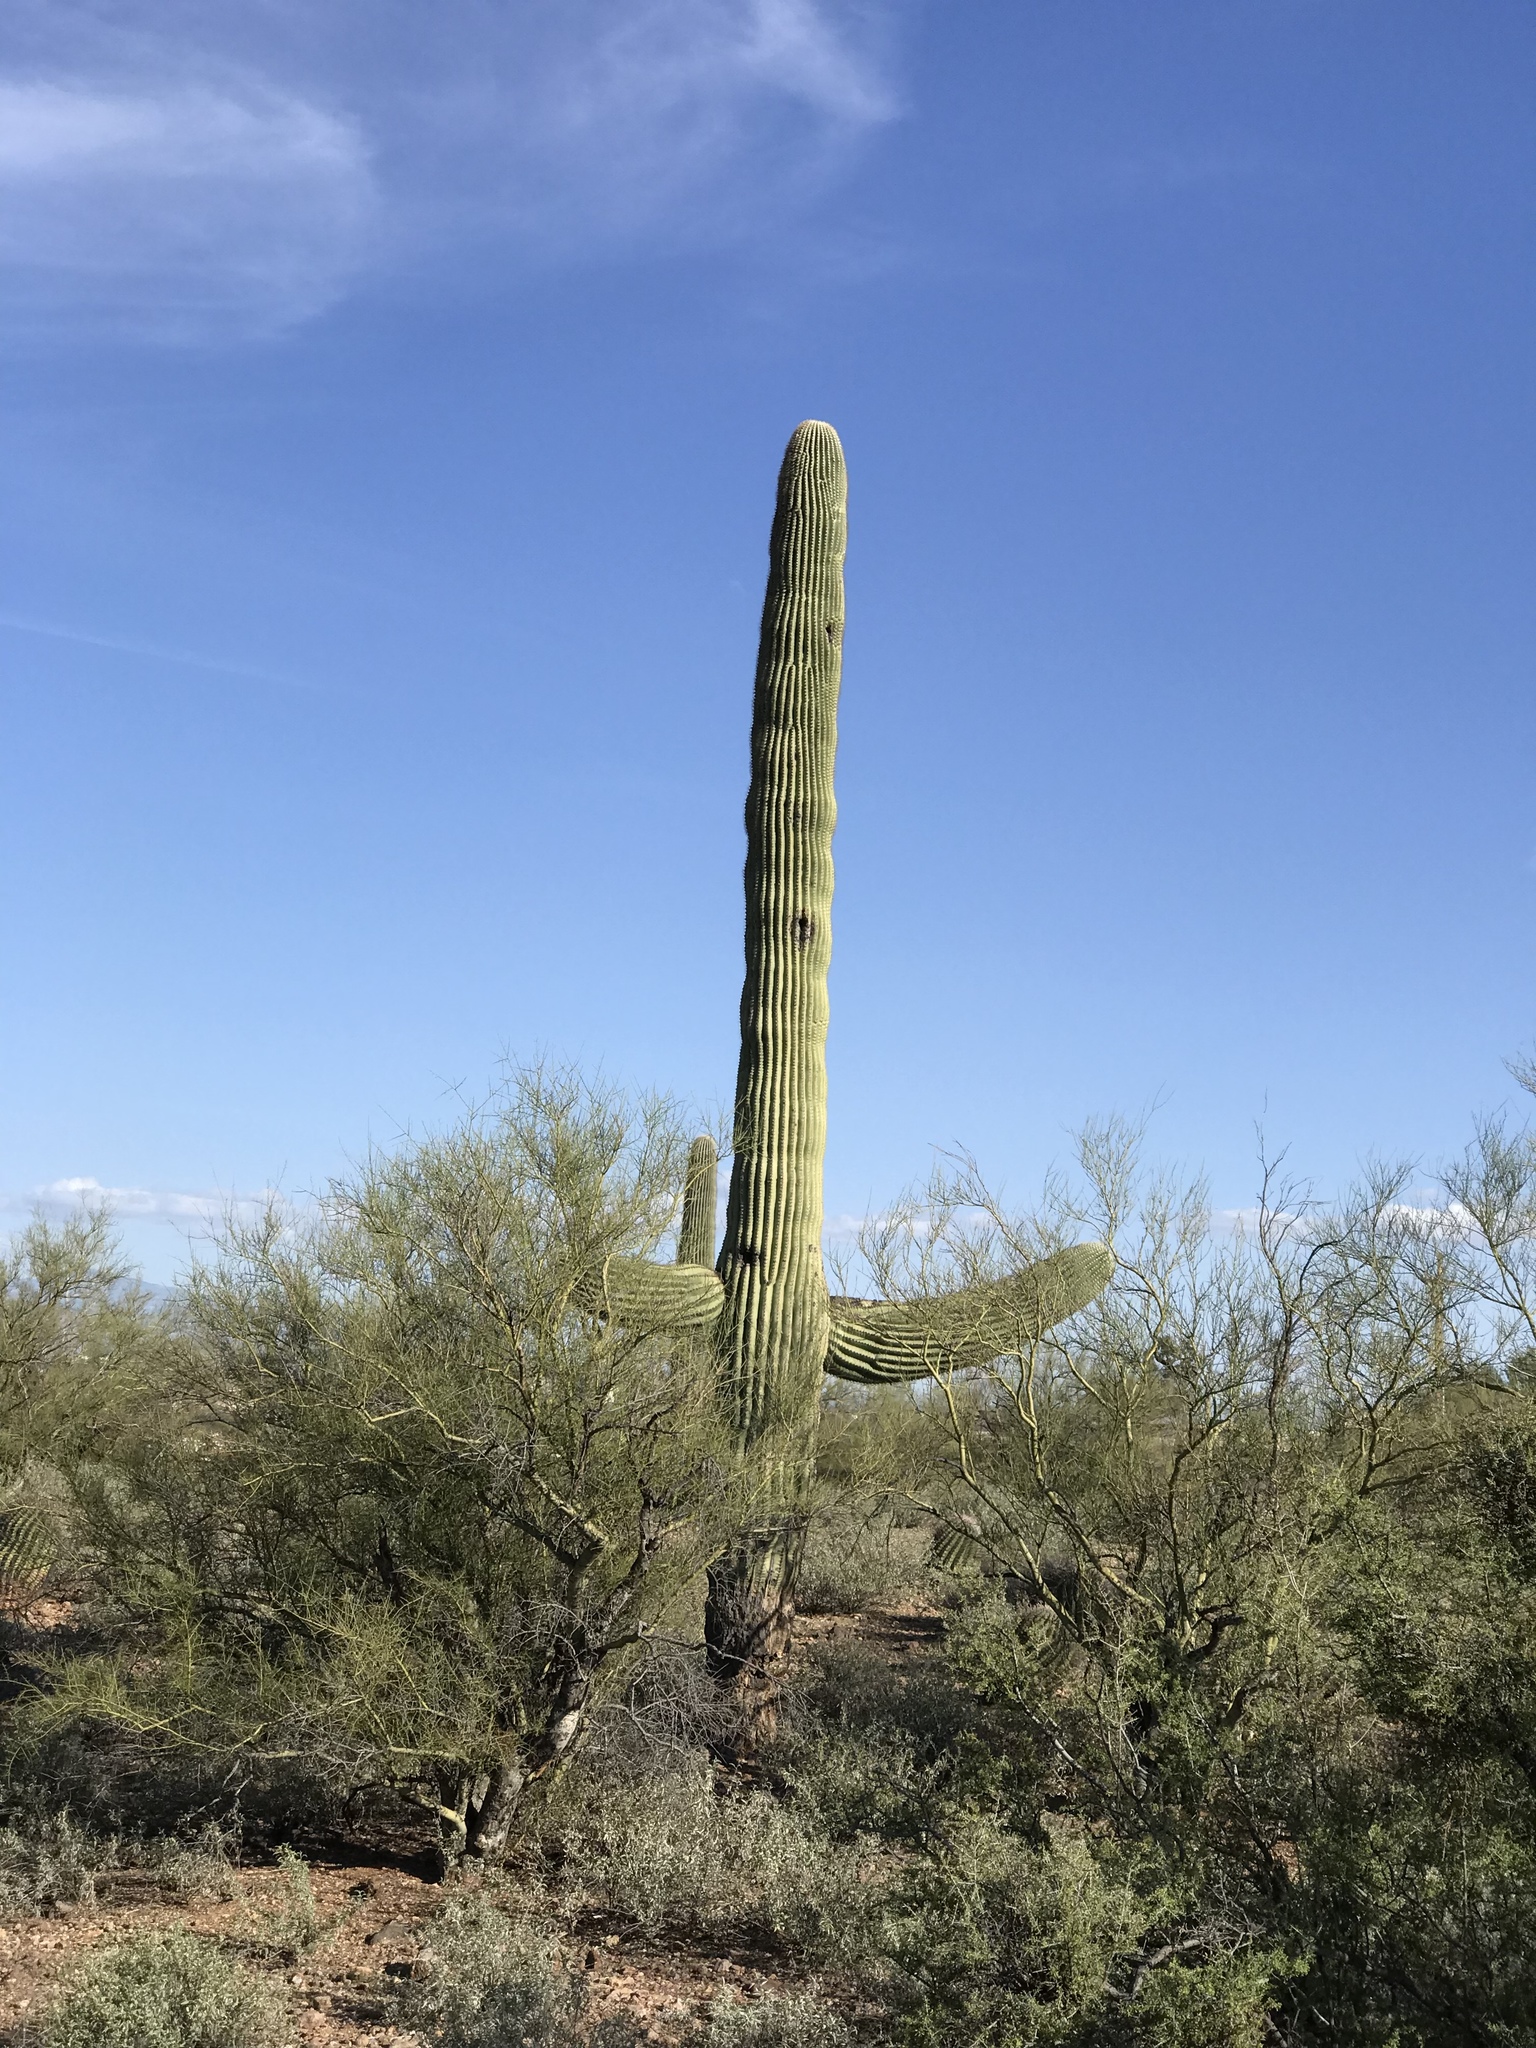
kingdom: Plantae
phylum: Tracheophyta
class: Magnoliopsida
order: Caryophyllales
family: Cactaceae
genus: Carnegiea
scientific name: Carnegiea gigantea
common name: Saguaro
